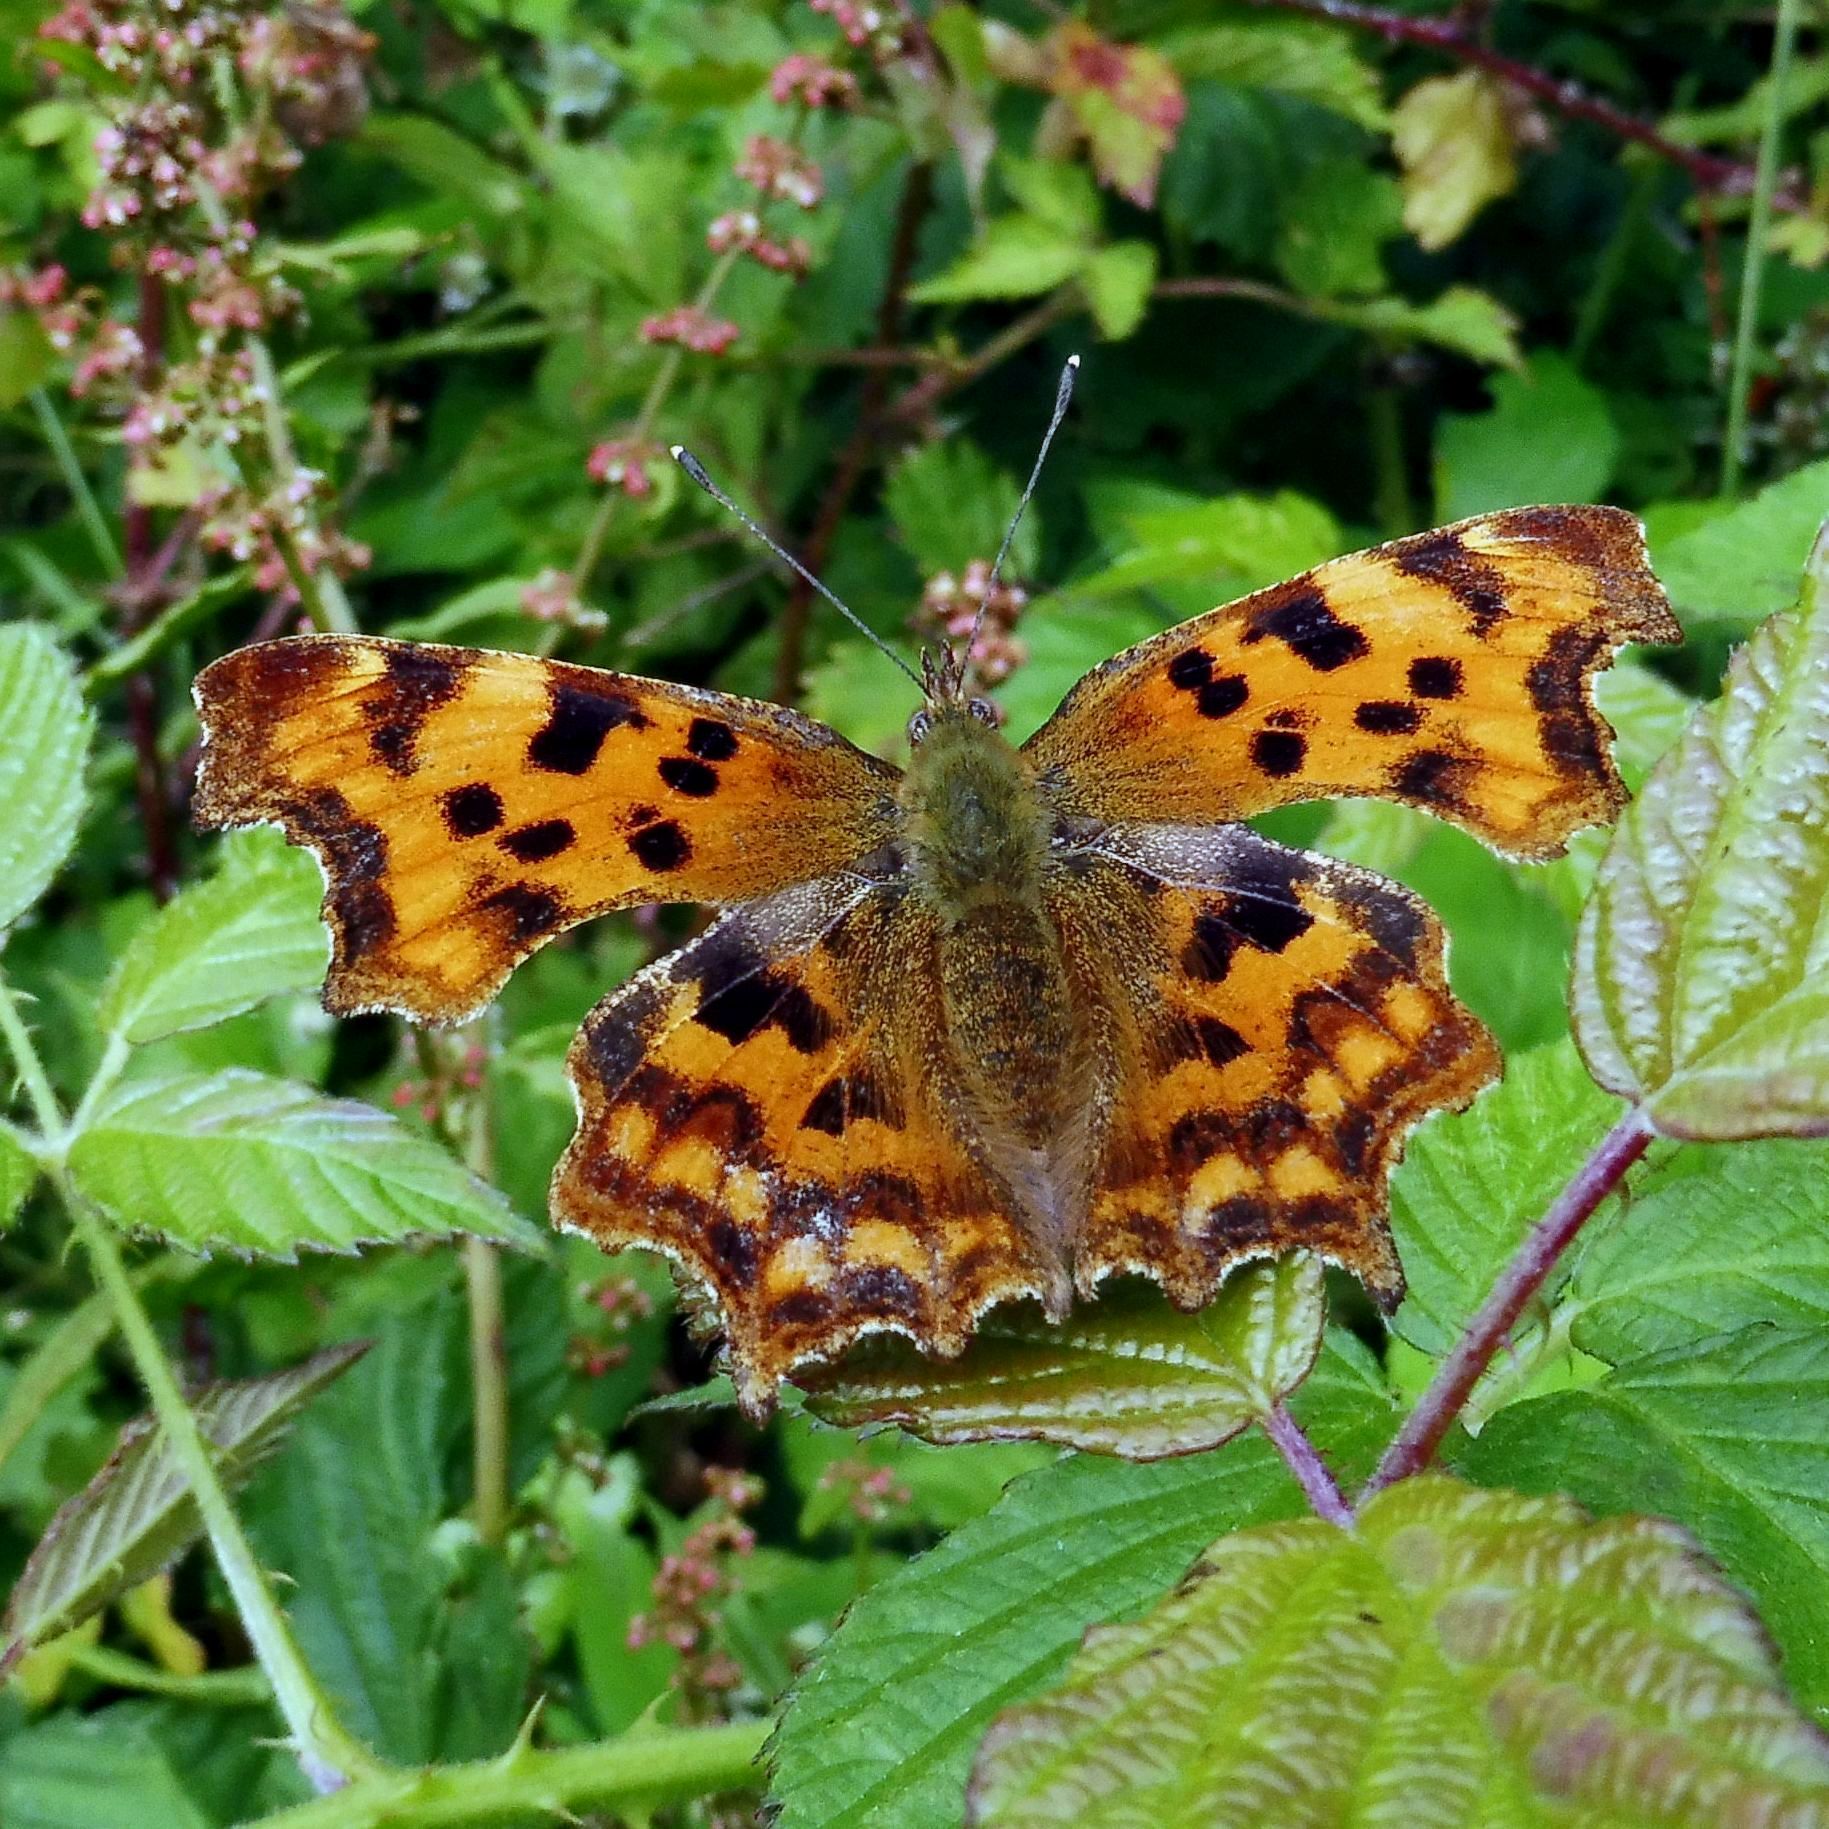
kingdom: Animalia
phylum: Arthropoda
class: Insecta
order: Lepidoptera
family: Nymphalidae
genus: Polygonia
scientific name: Polygonia c-album
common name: Comma
